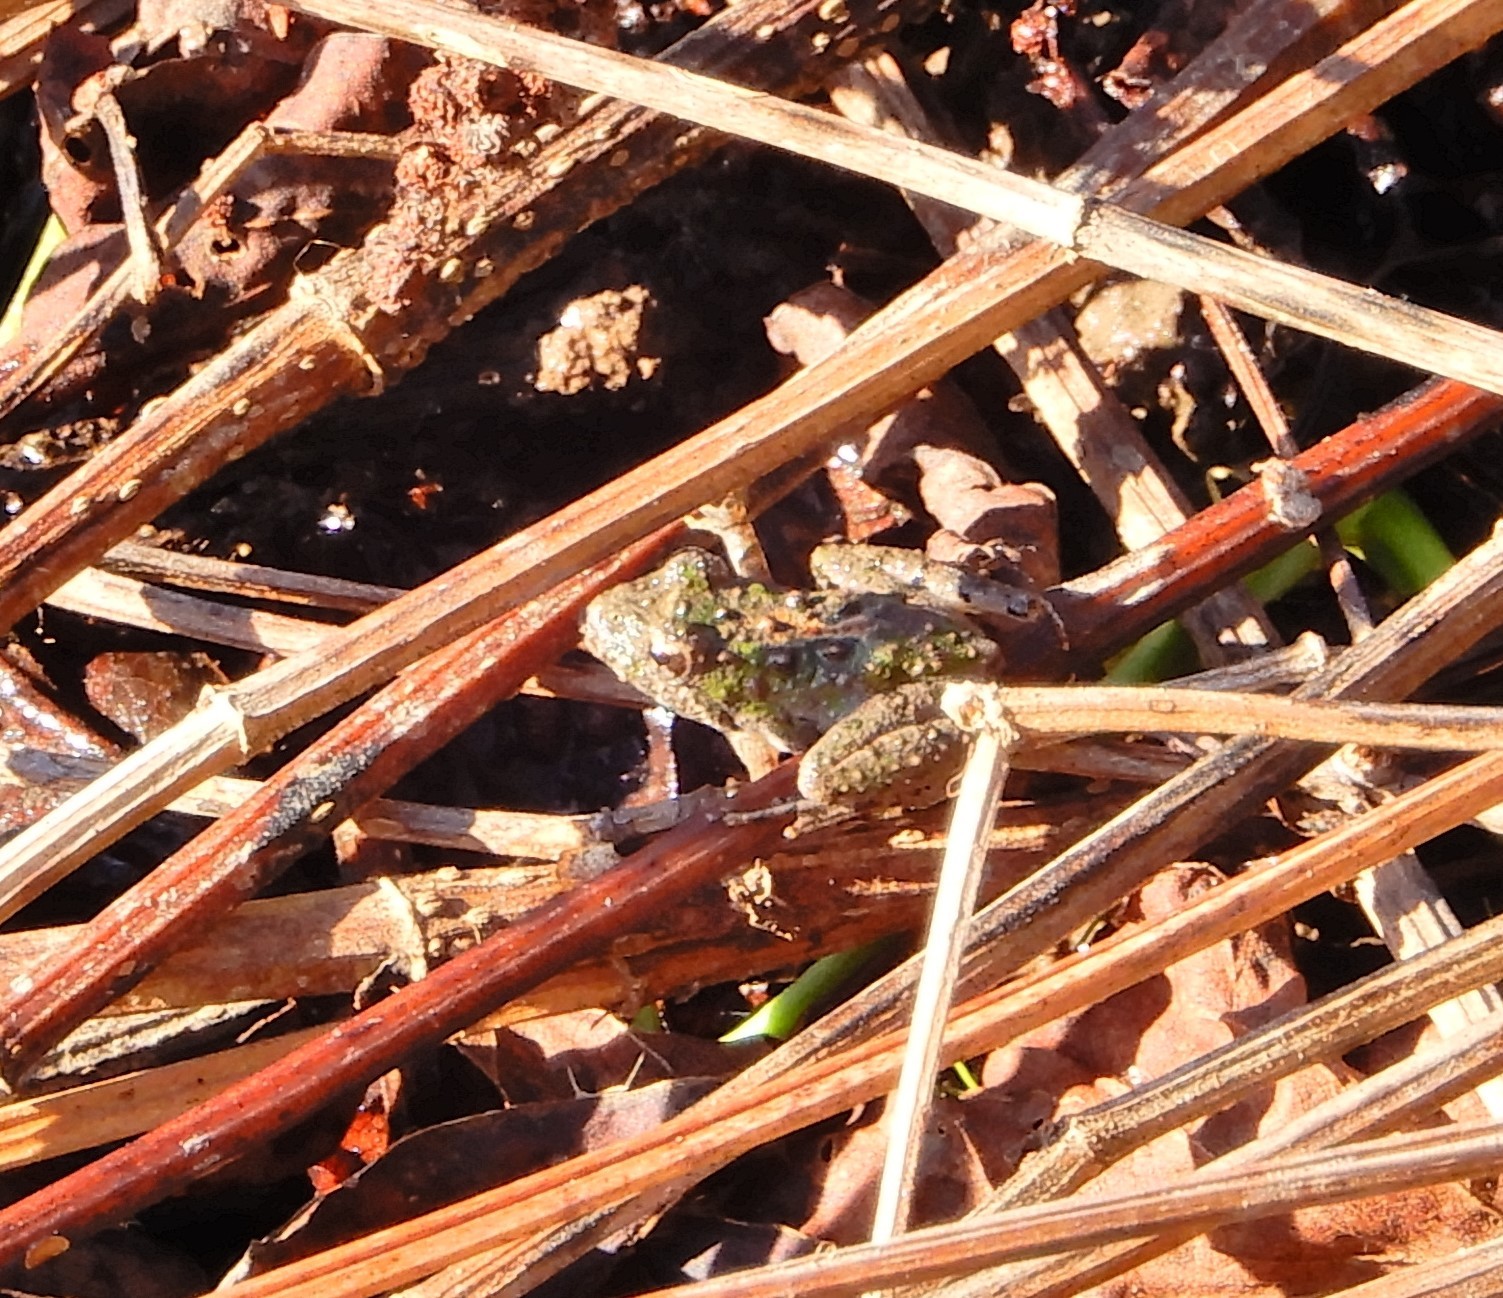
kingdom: Animalia
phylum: Chordata
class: Amphibia
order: Anura
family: Hylidae
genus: Acris
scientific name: Acris crepitans
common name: Northern cricket frog
